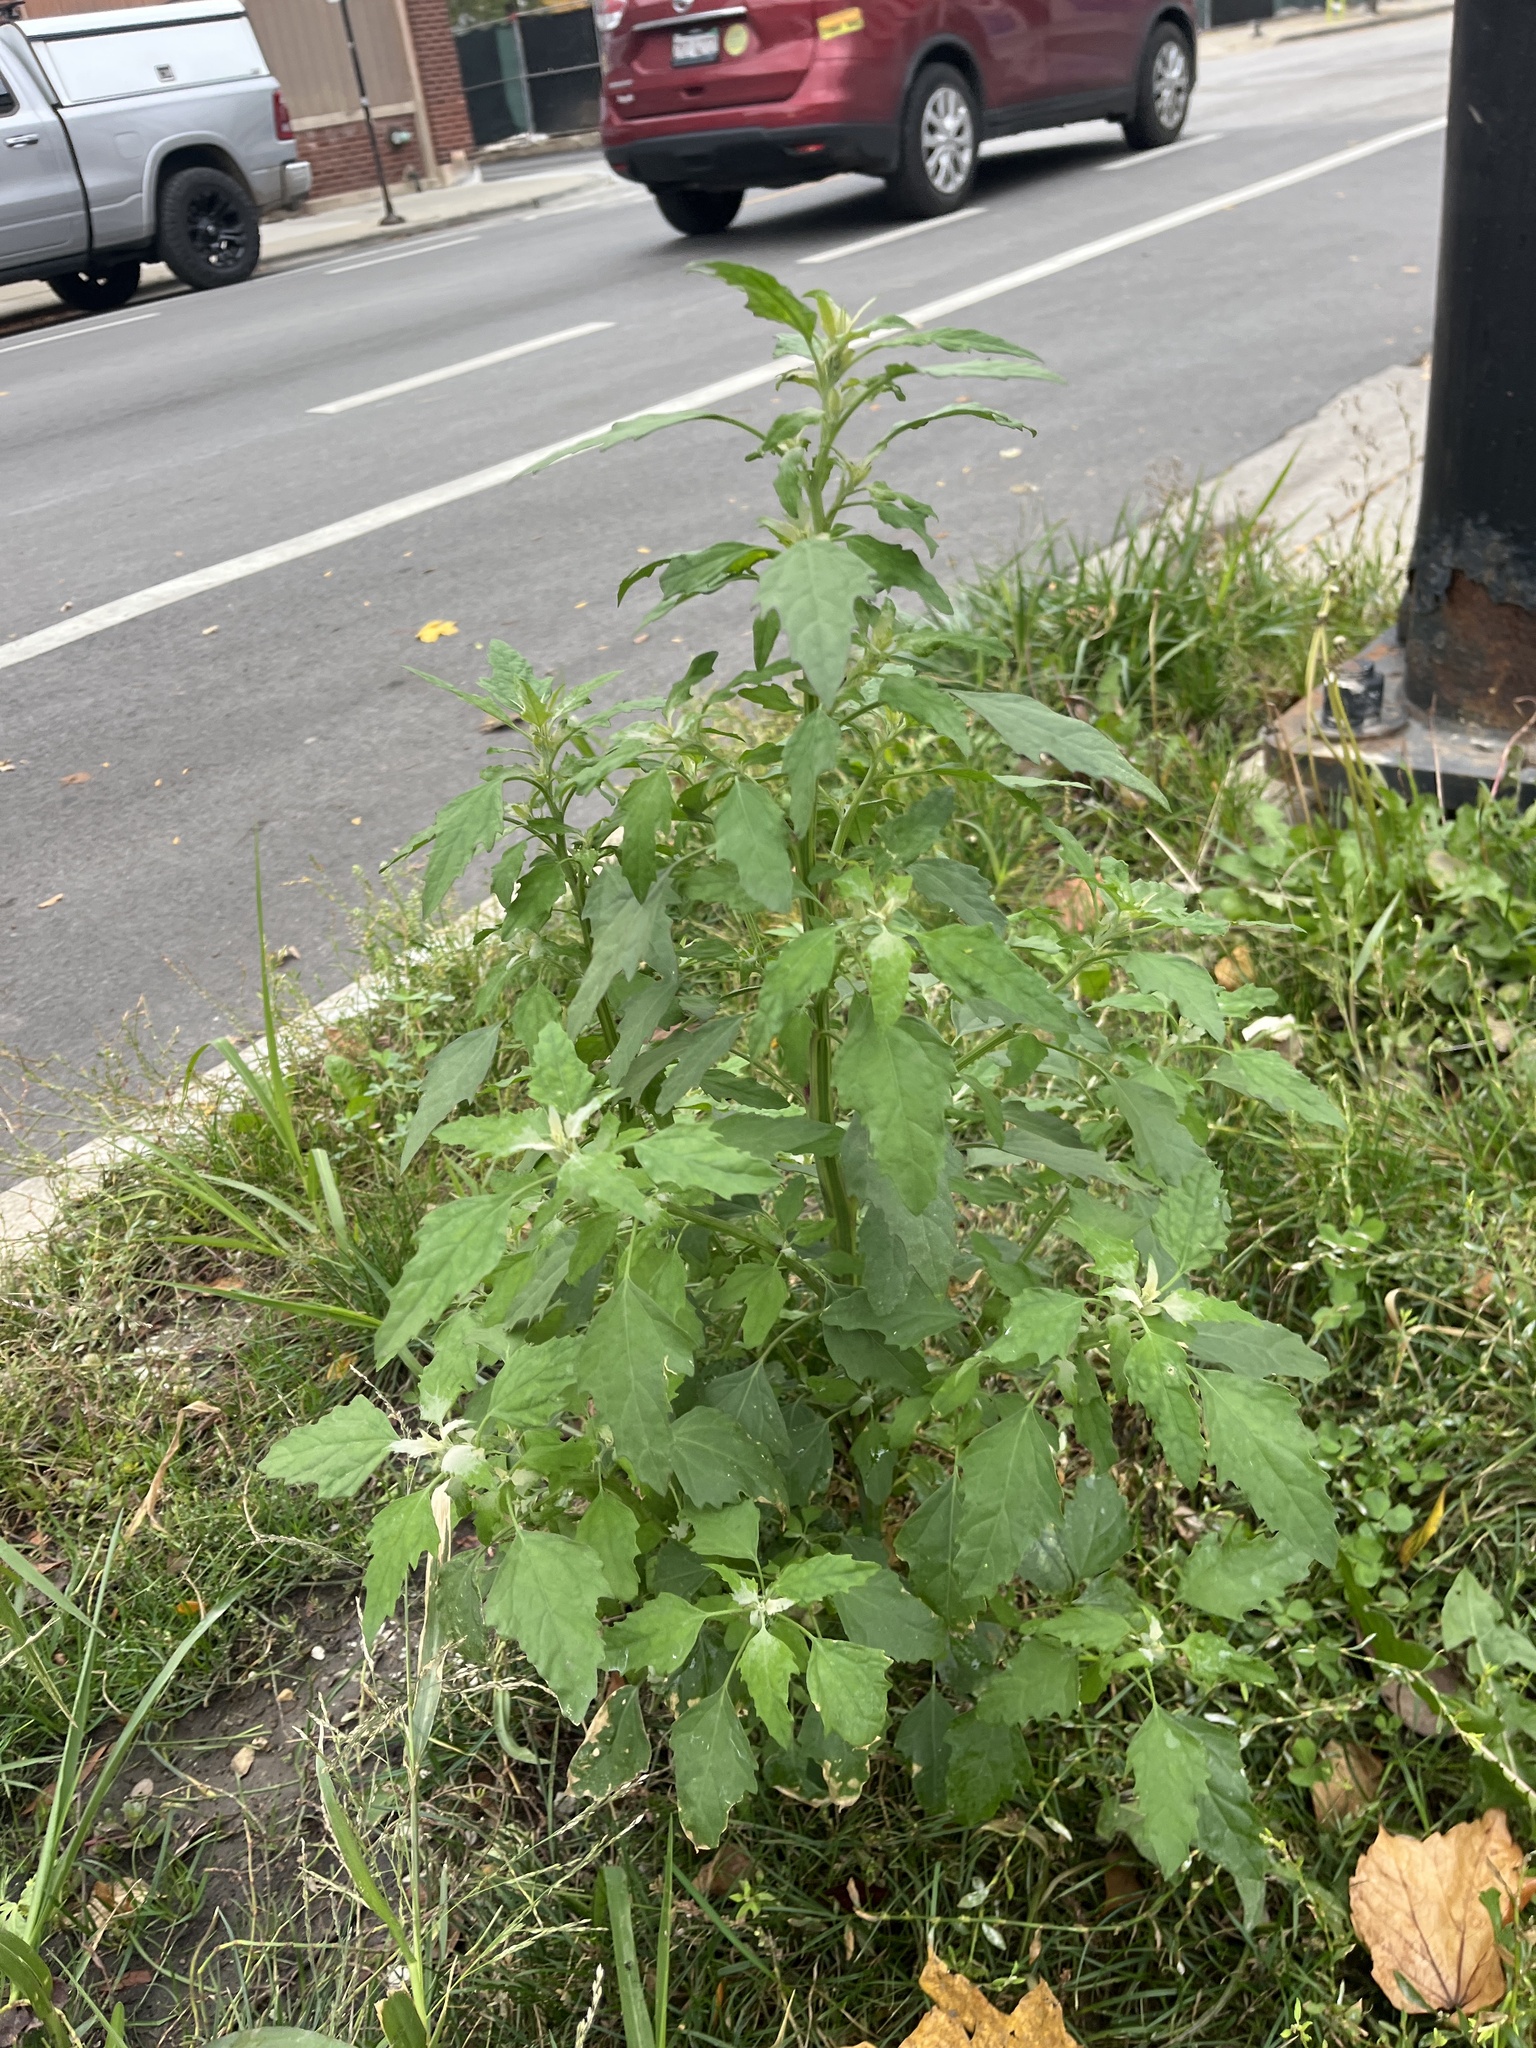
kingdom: Plantae
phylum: Tracheophyta
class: Magnoliopsida
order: Caryophyllales
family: Amaranthaceae
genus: Chenopodium
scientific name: Chenopodium album
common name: Fat-hen
